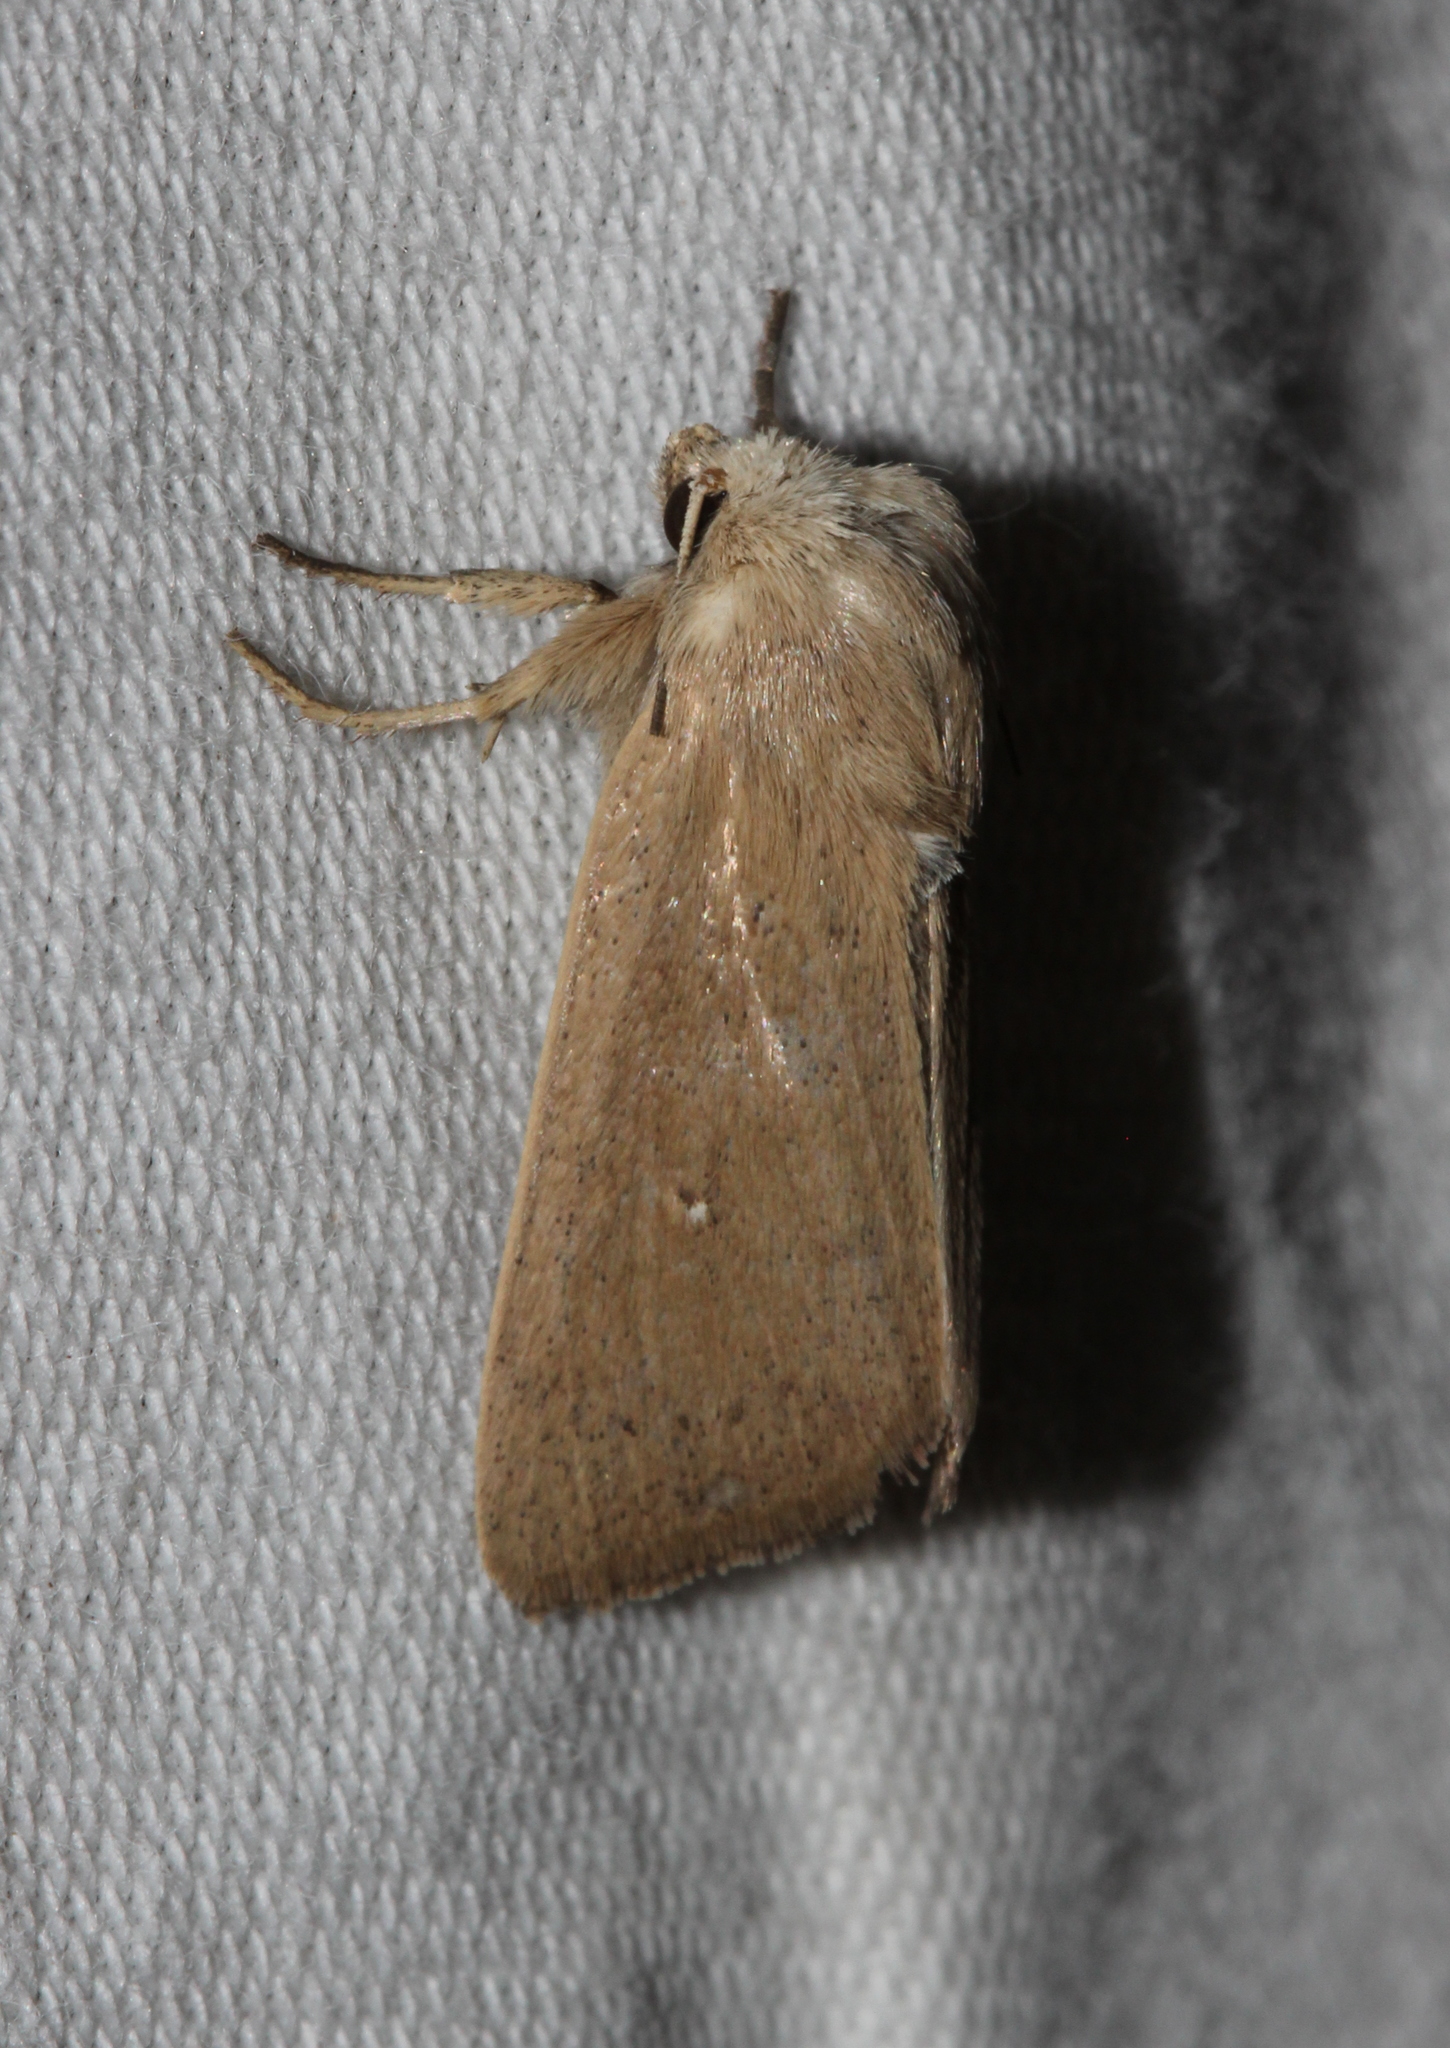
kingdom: Animalia
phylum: Arthropoda
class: Insecta
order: Lepidoptera
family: Noctuidae
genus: Mythimna
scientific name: Mythimna sicula
